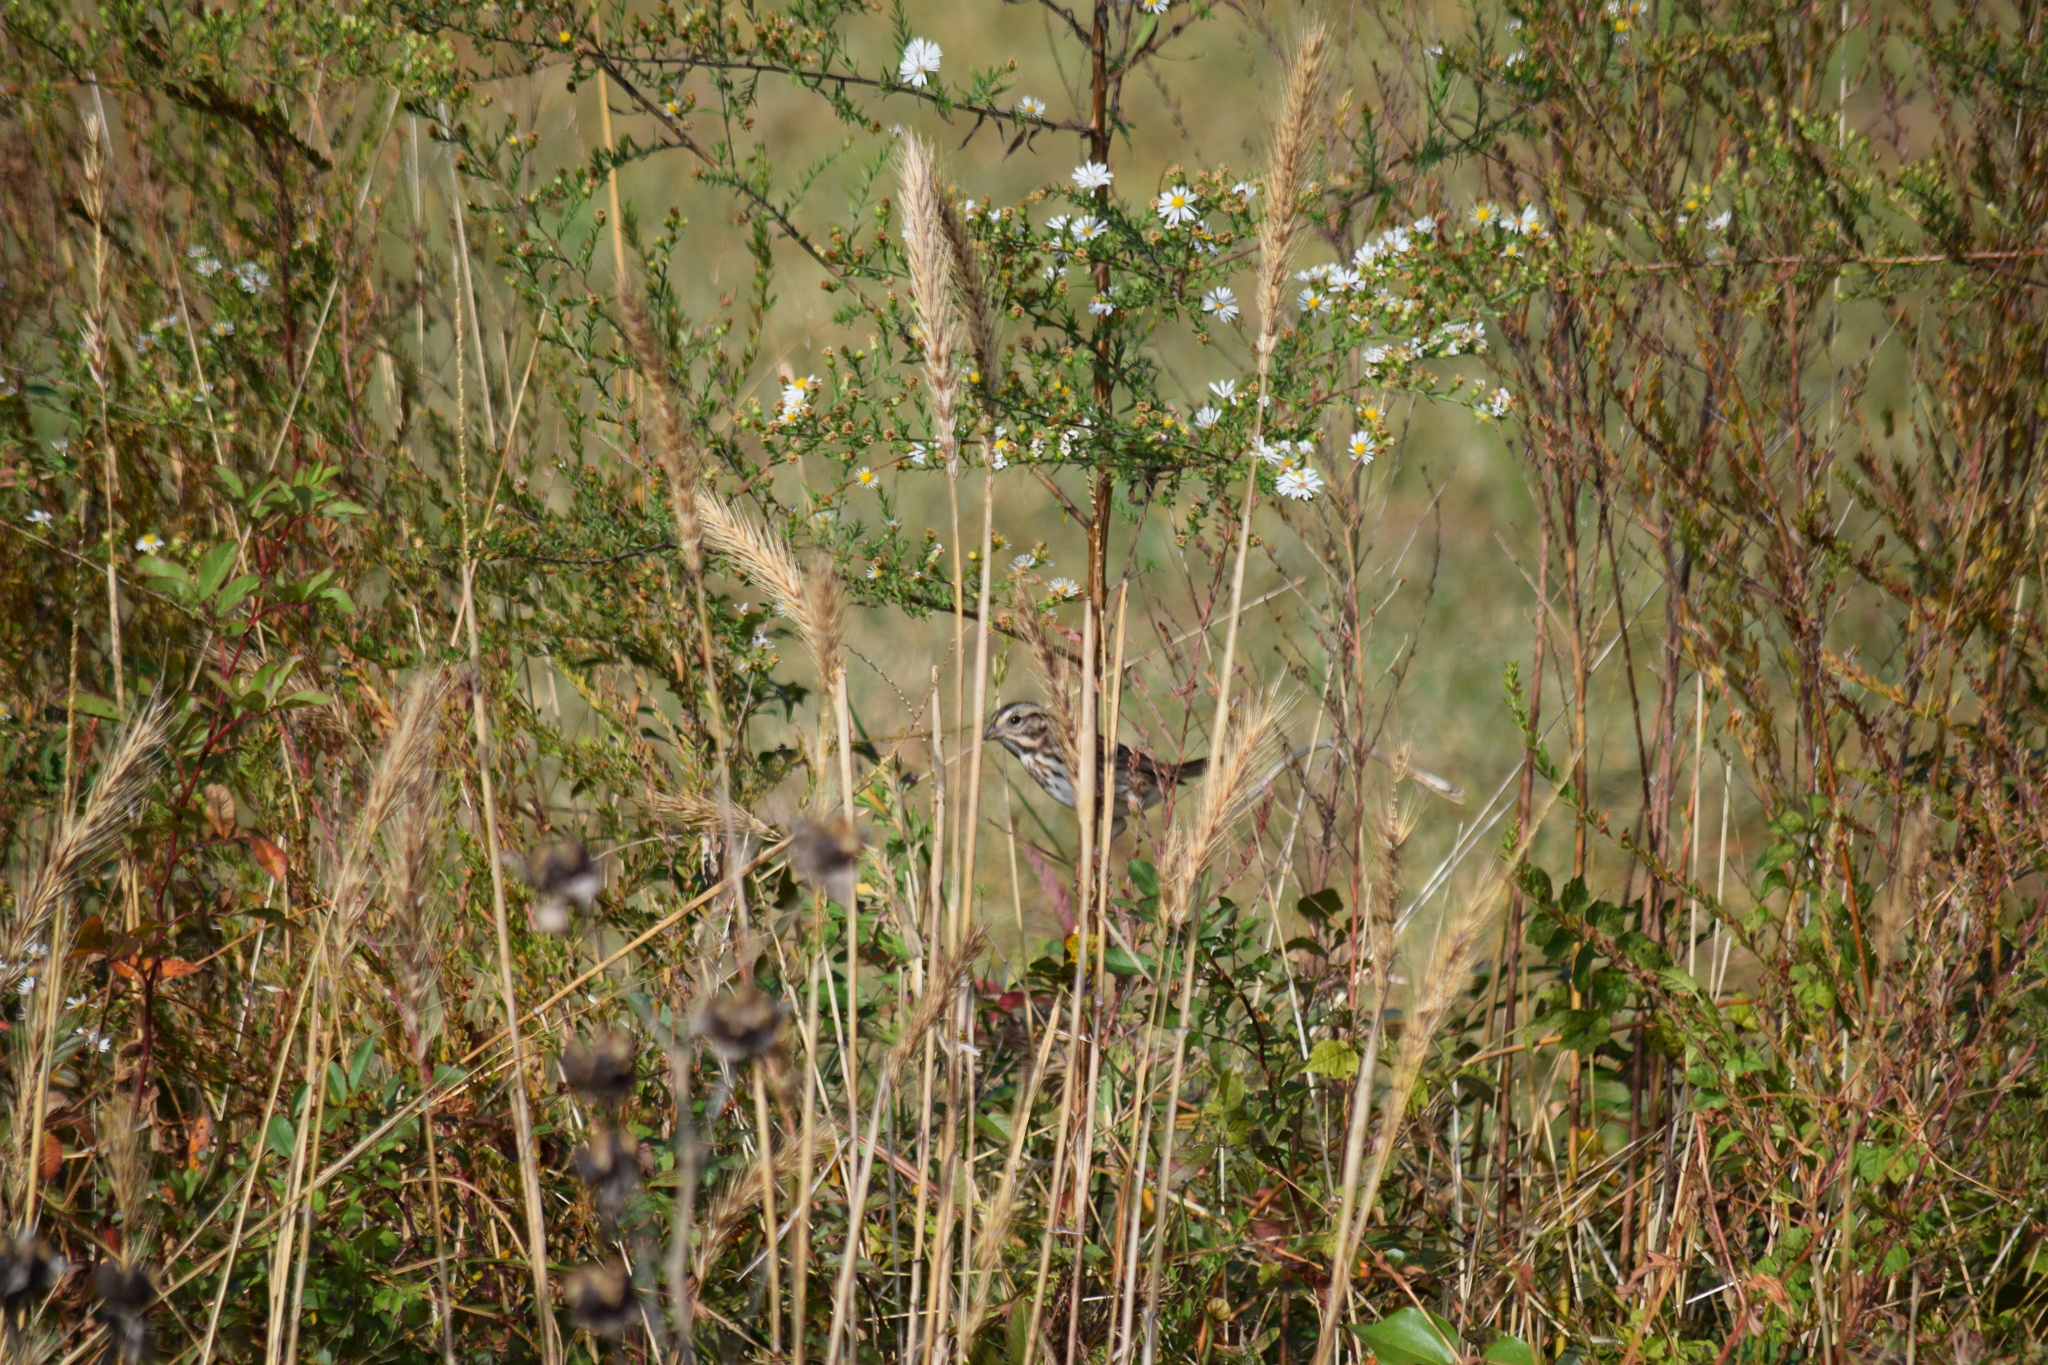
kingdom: Animalia
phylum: Chordata
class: Aves
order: Passeriformes
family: Passerellidae
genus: Melospiza
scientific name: Melospiza melodia
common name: Song sparrow
